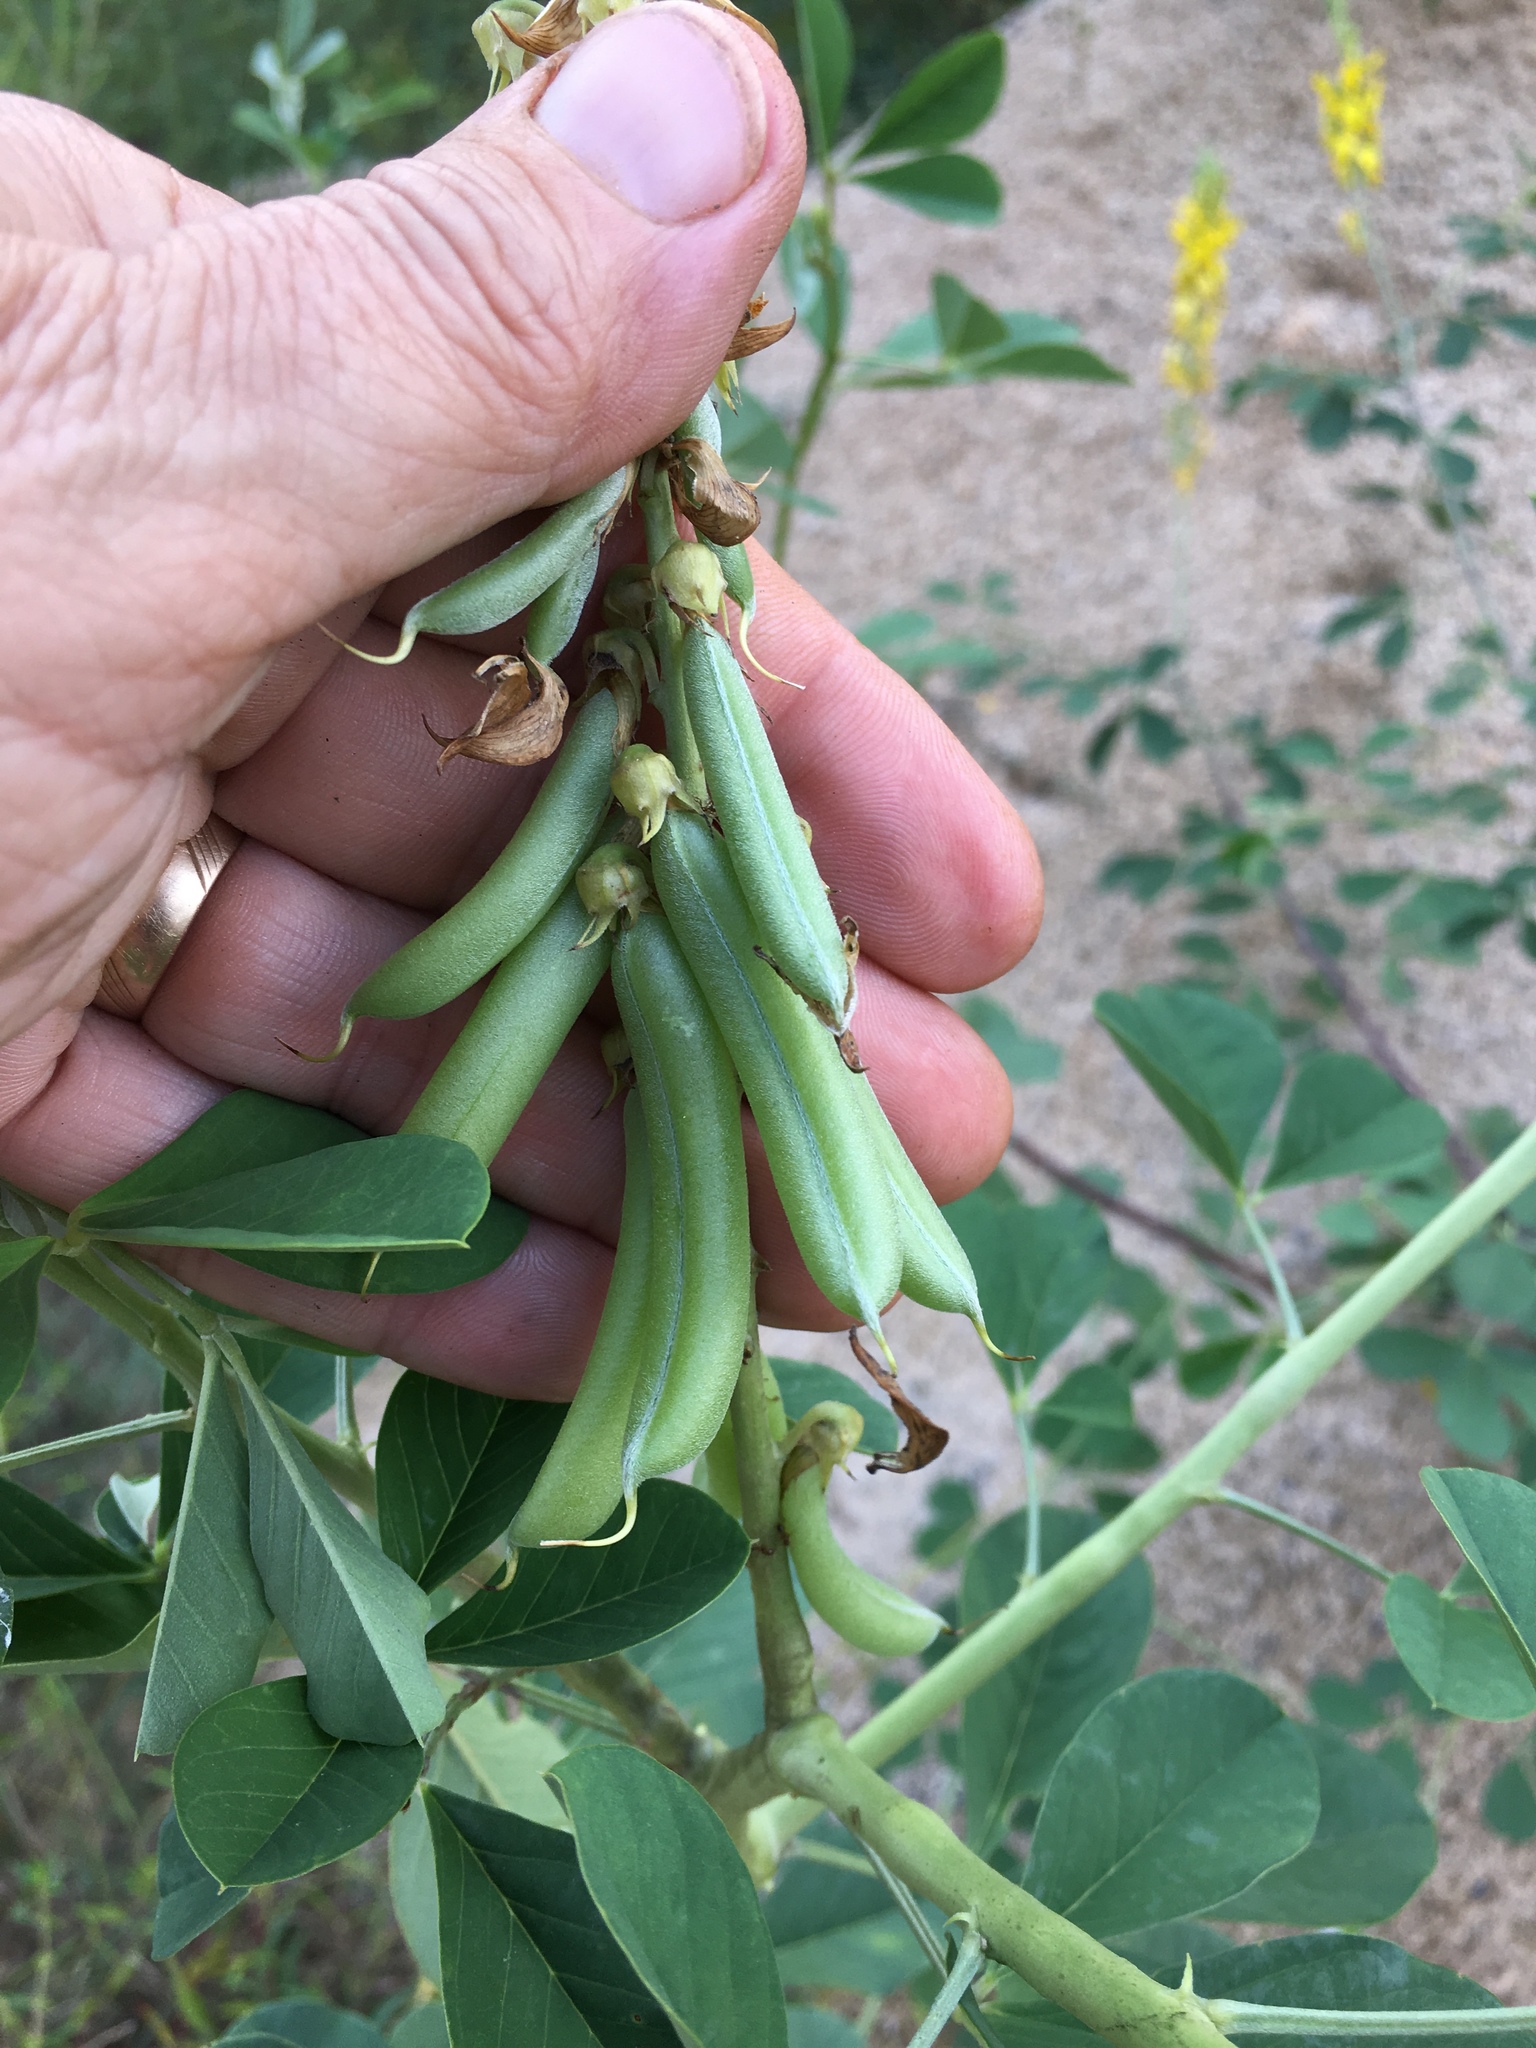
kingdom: Plantae
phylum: Tracheophyta
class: Magnoliopsida
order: Fabales
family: Fabaceae
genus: Crotalaria
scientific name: Crotalaria pallida
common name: Smooth rattlebox
